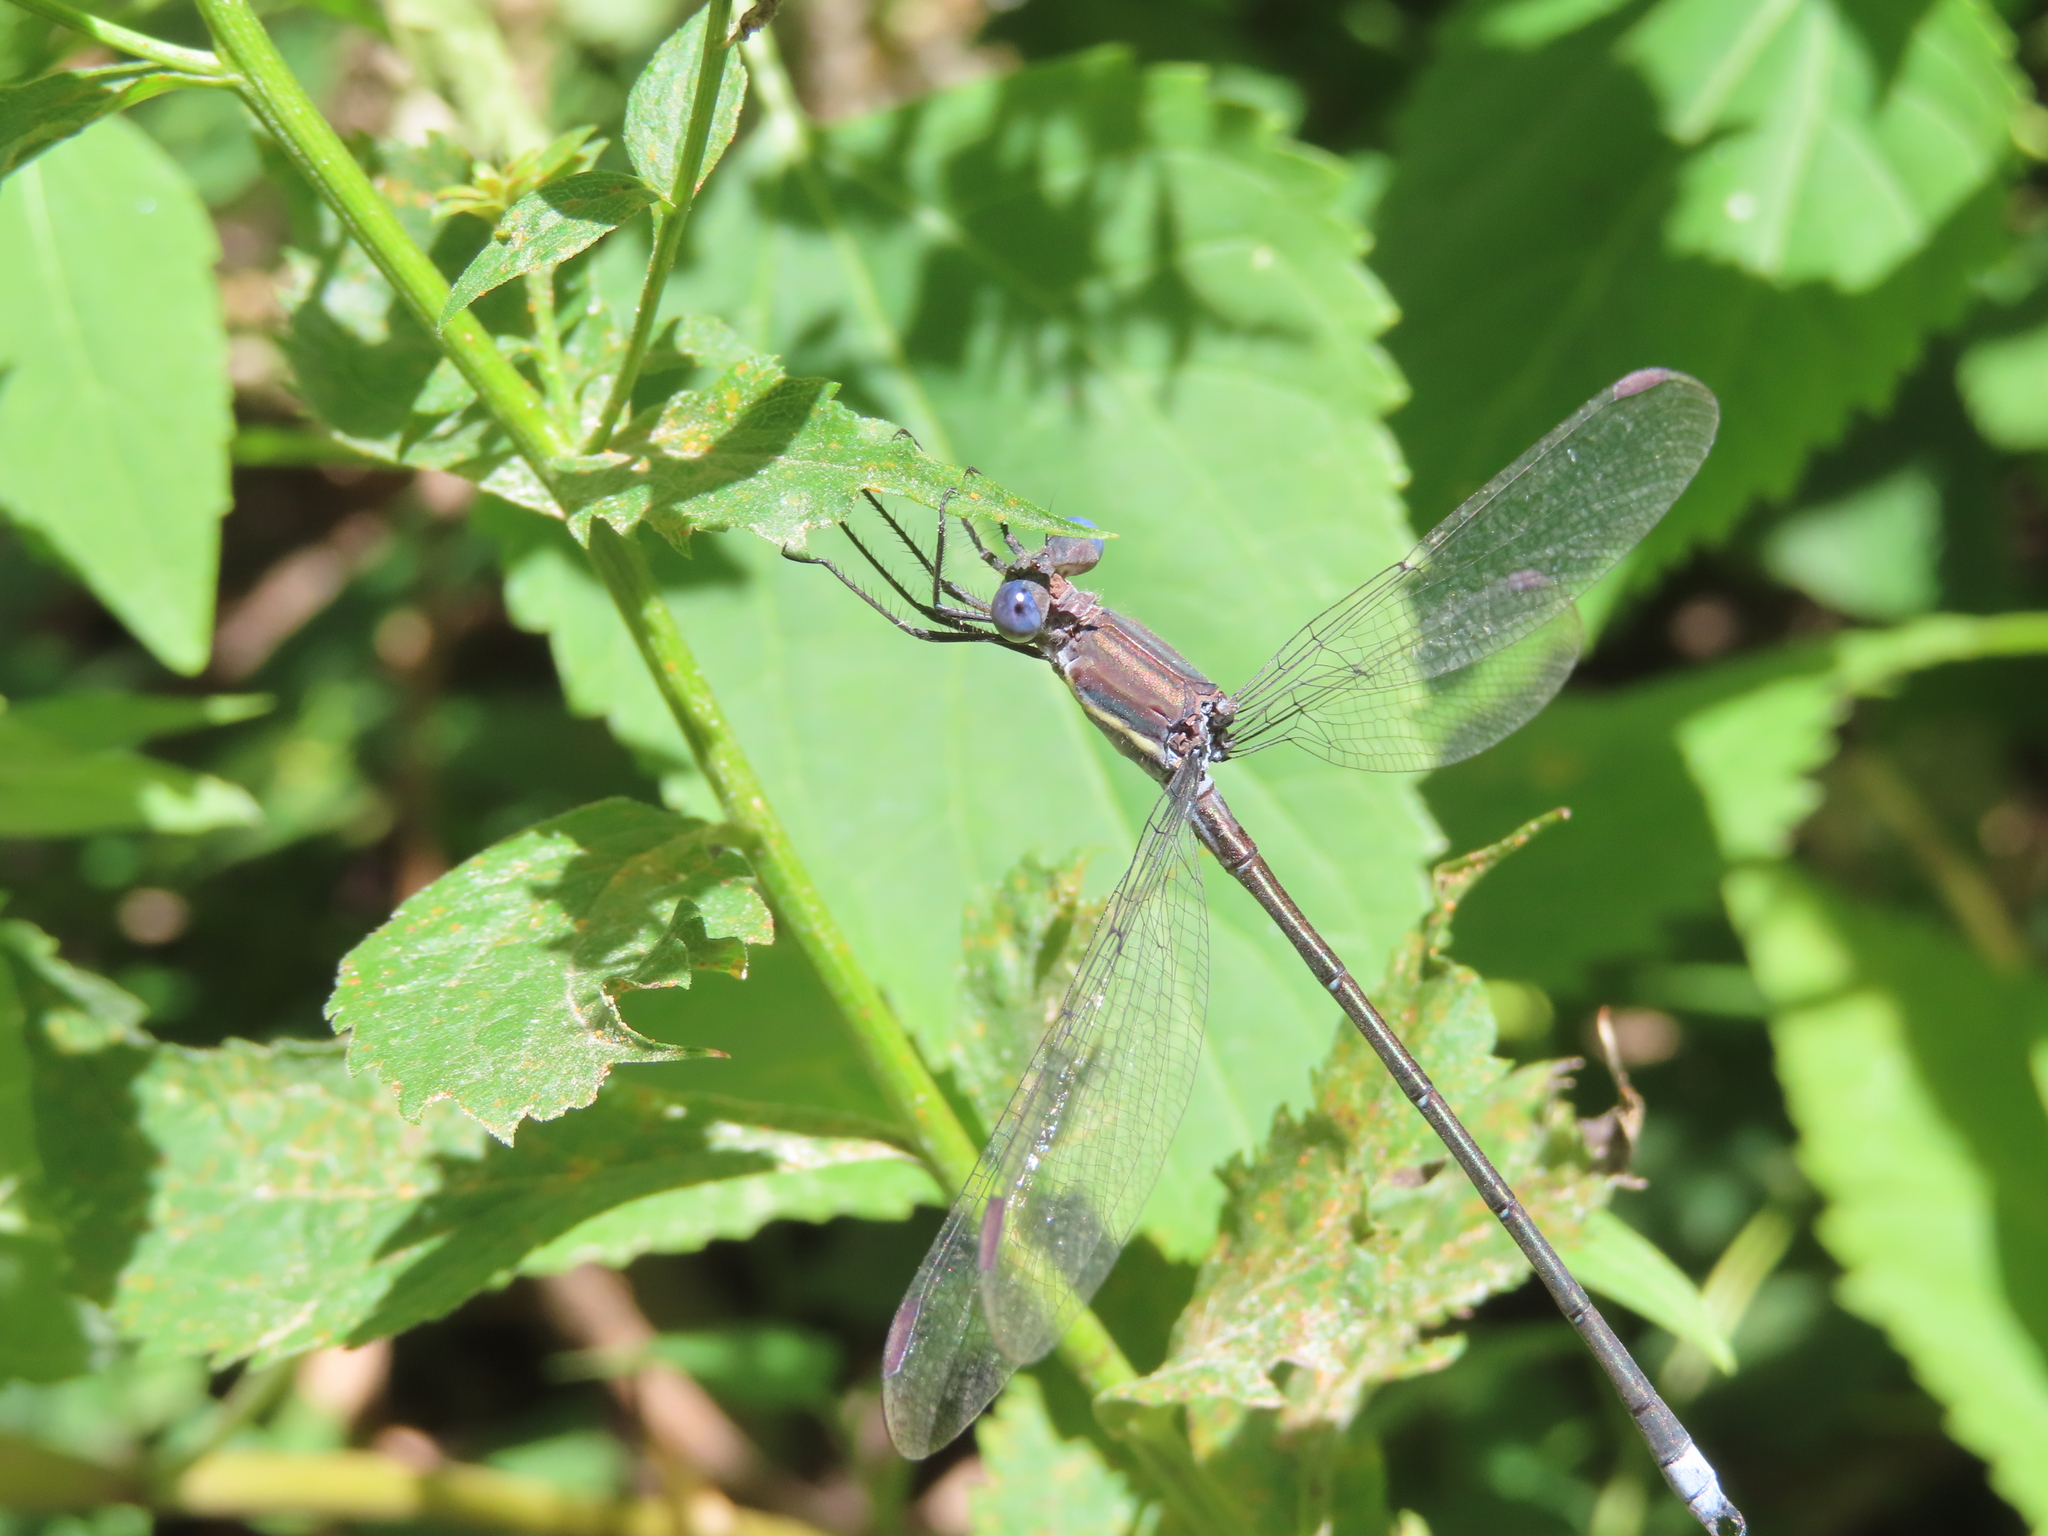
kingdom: Animalia
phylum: Arthropoda
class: Insecta
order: Odonata
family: Lestidae
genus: Archilestes
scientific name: Archilestes grandis
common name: Great spreadwing
